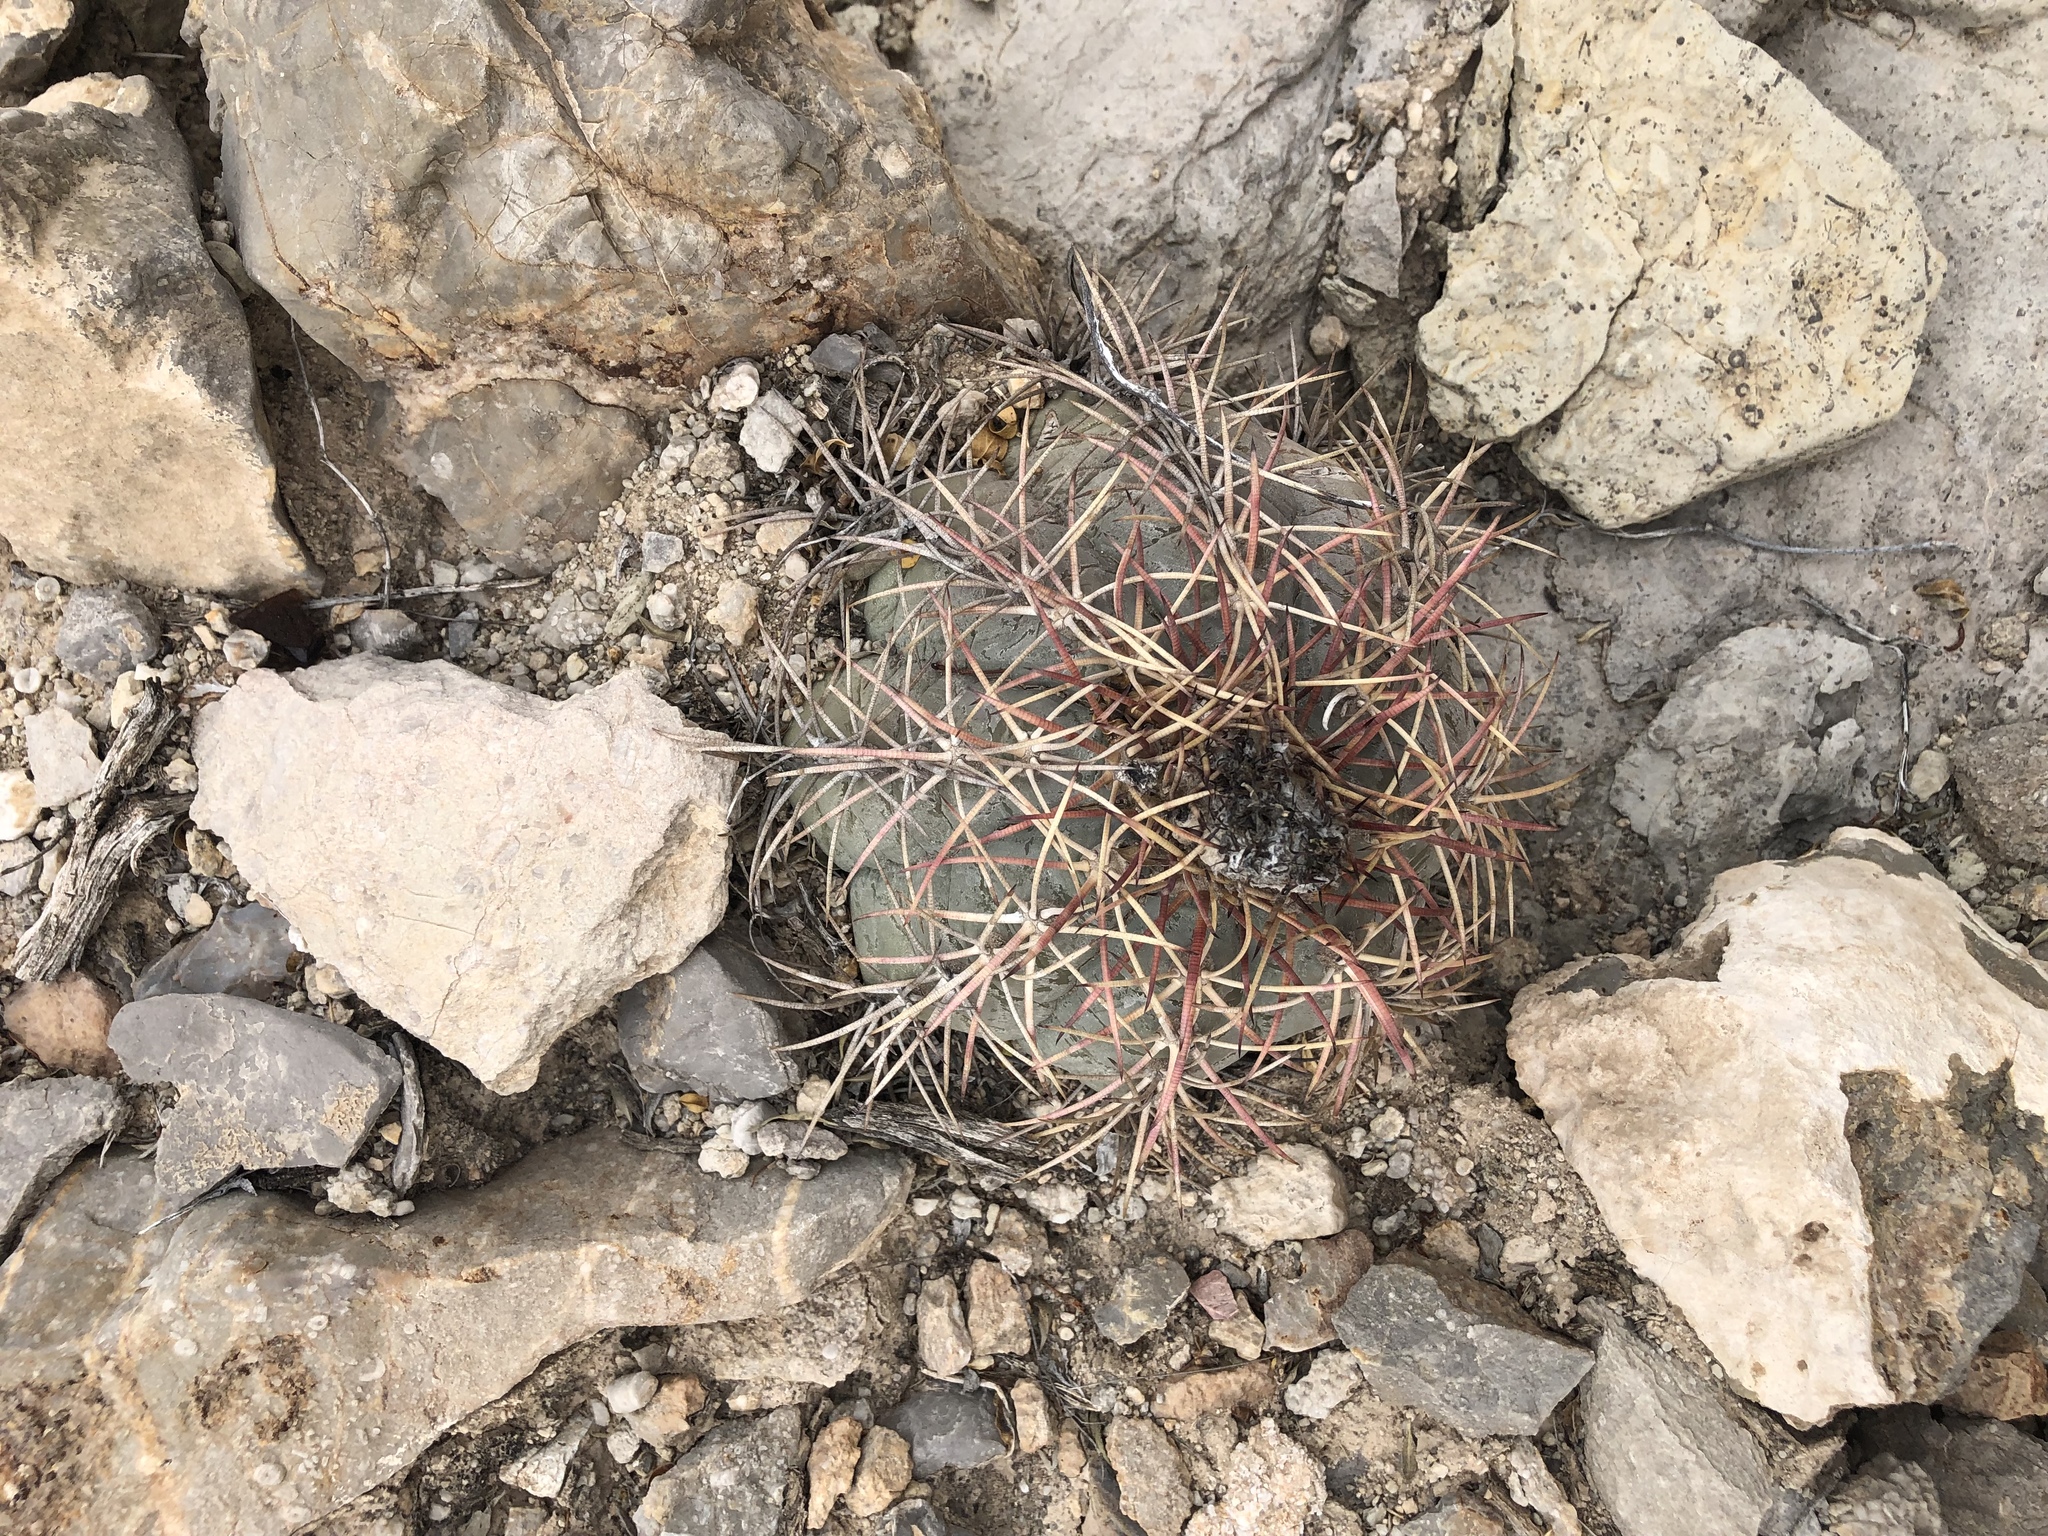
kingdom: Plantae
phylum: Tracheophyta
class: Magnoliopsida
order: Caryophyllales
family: Cactaceae
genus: Echinocactus
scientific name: Echinocactus horizonthalonius
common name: Devilshead
